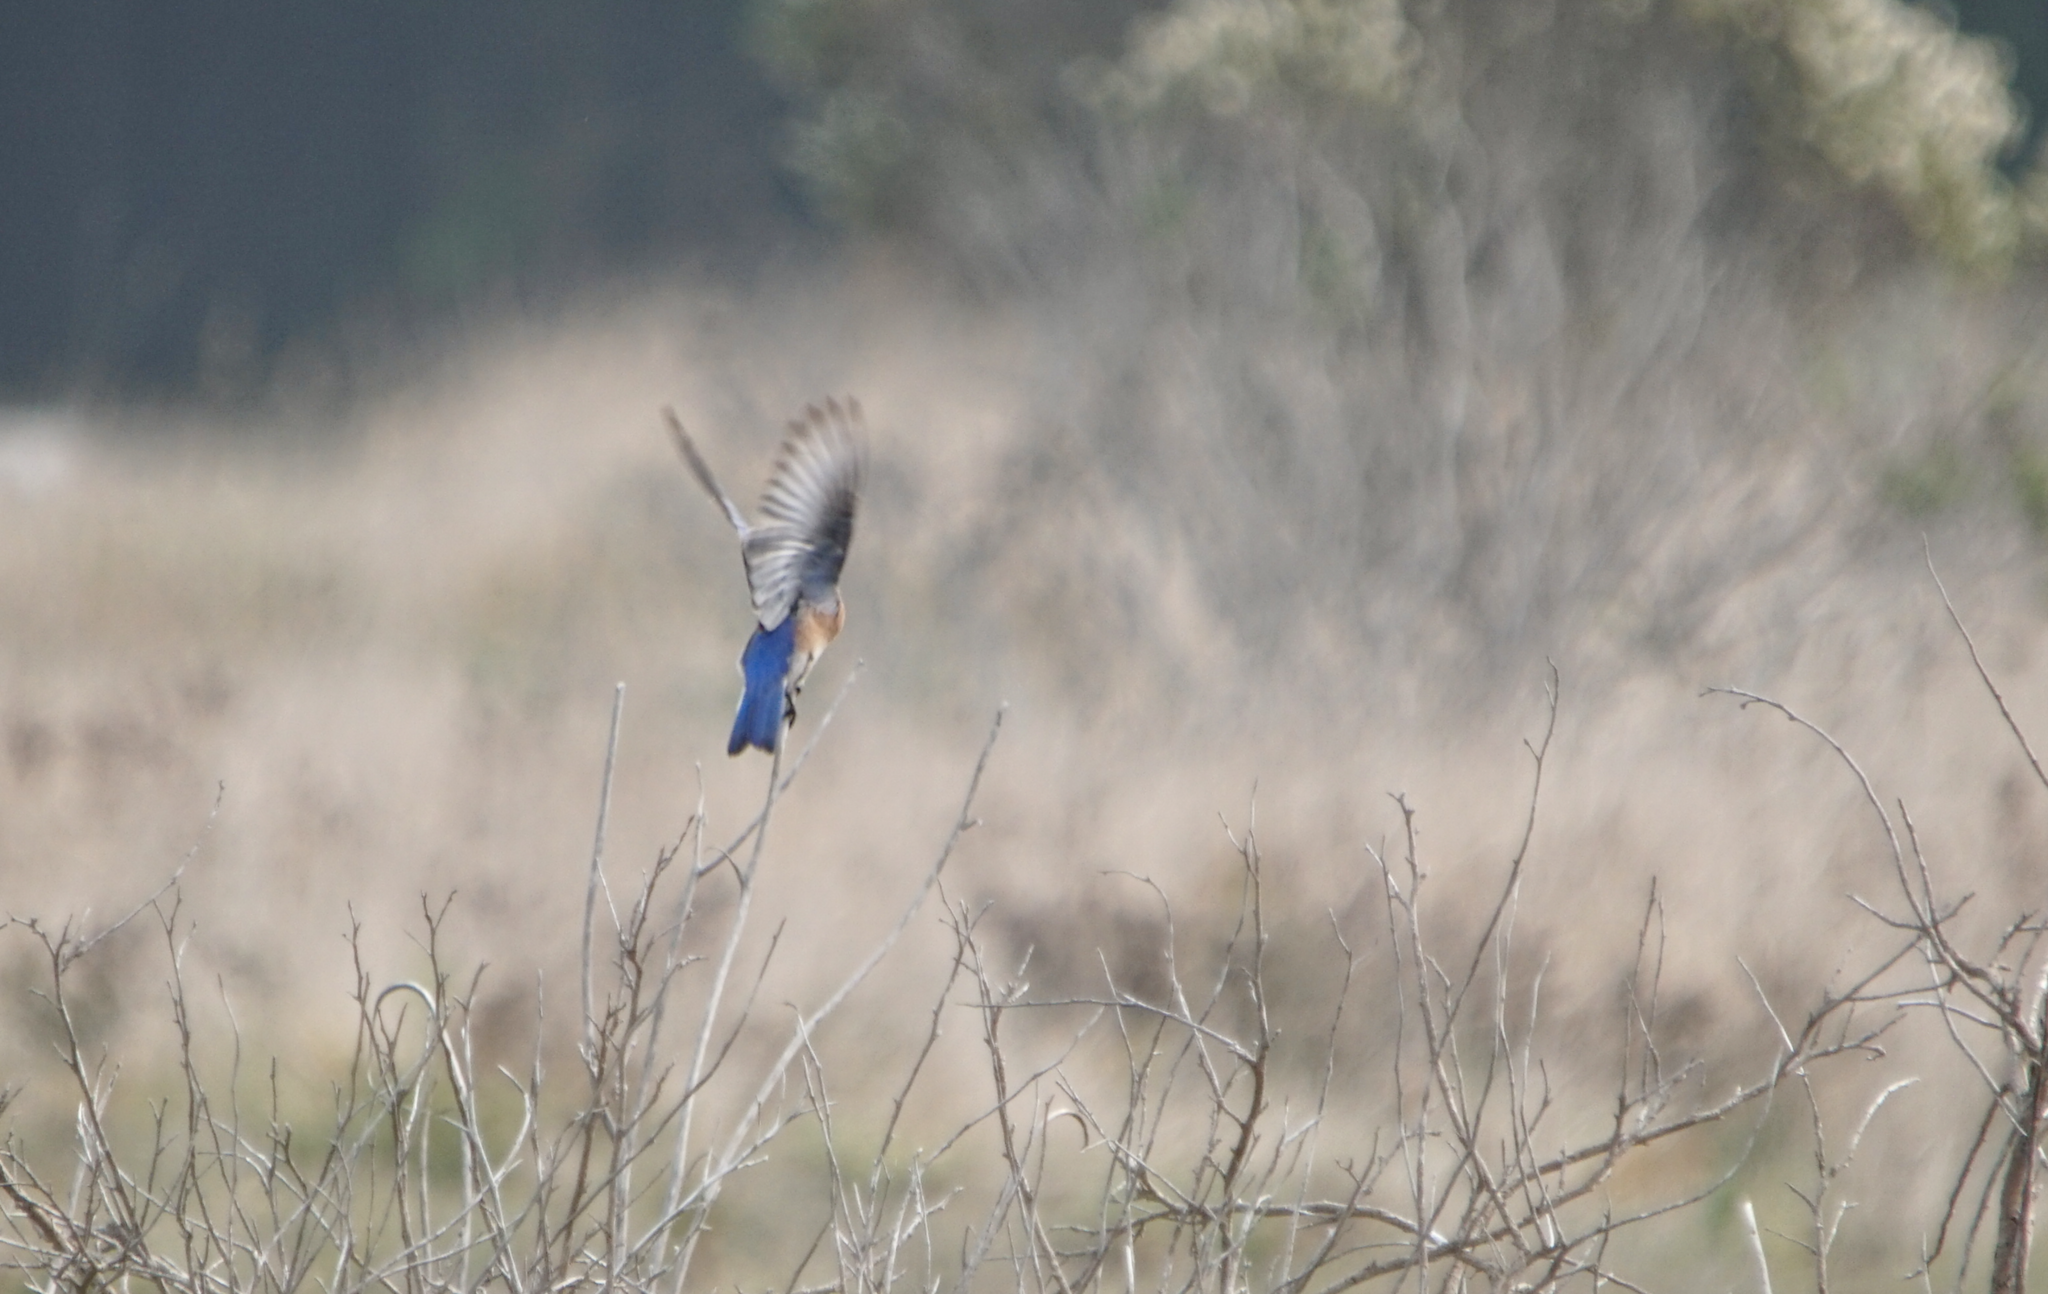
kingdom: Animalia
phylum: Chordata
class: Aves
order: Passeriformes
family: Turdidae
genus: Sialia
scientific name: Sialia mexicana
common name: Western bluebird
